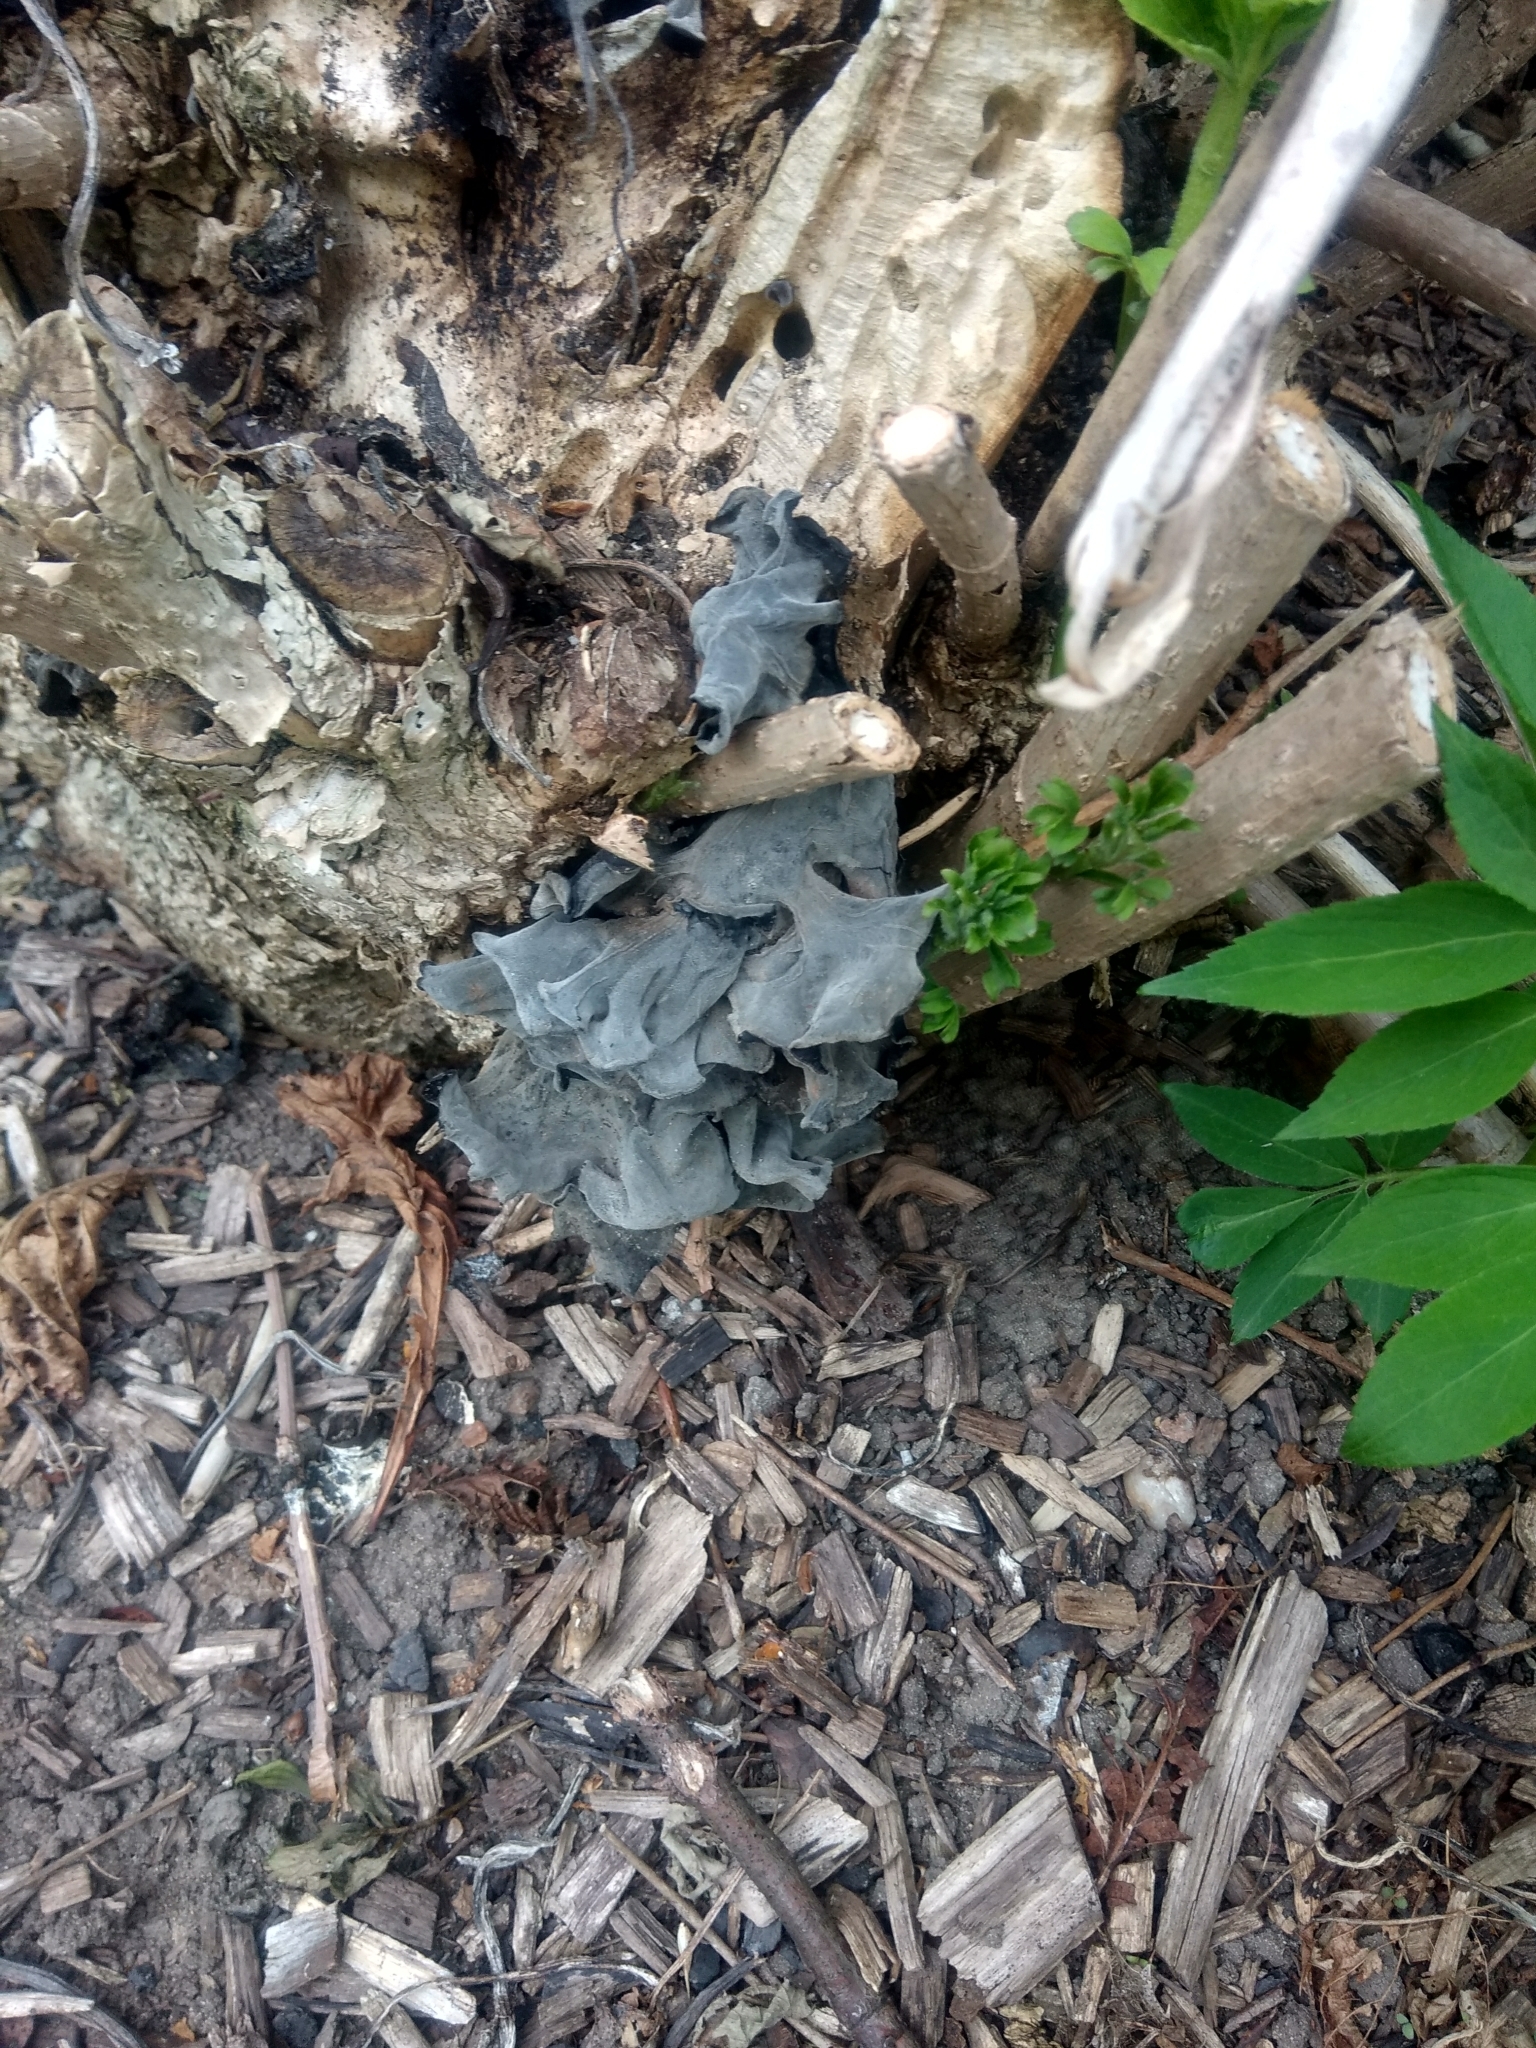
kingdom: Fungi
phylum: Basidiomycota
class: Agaricomycetes
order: Auriculariales
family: Auriculariaceae
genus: Auricularia
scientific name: Auricularia auricula-judae
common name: Jelly ear
